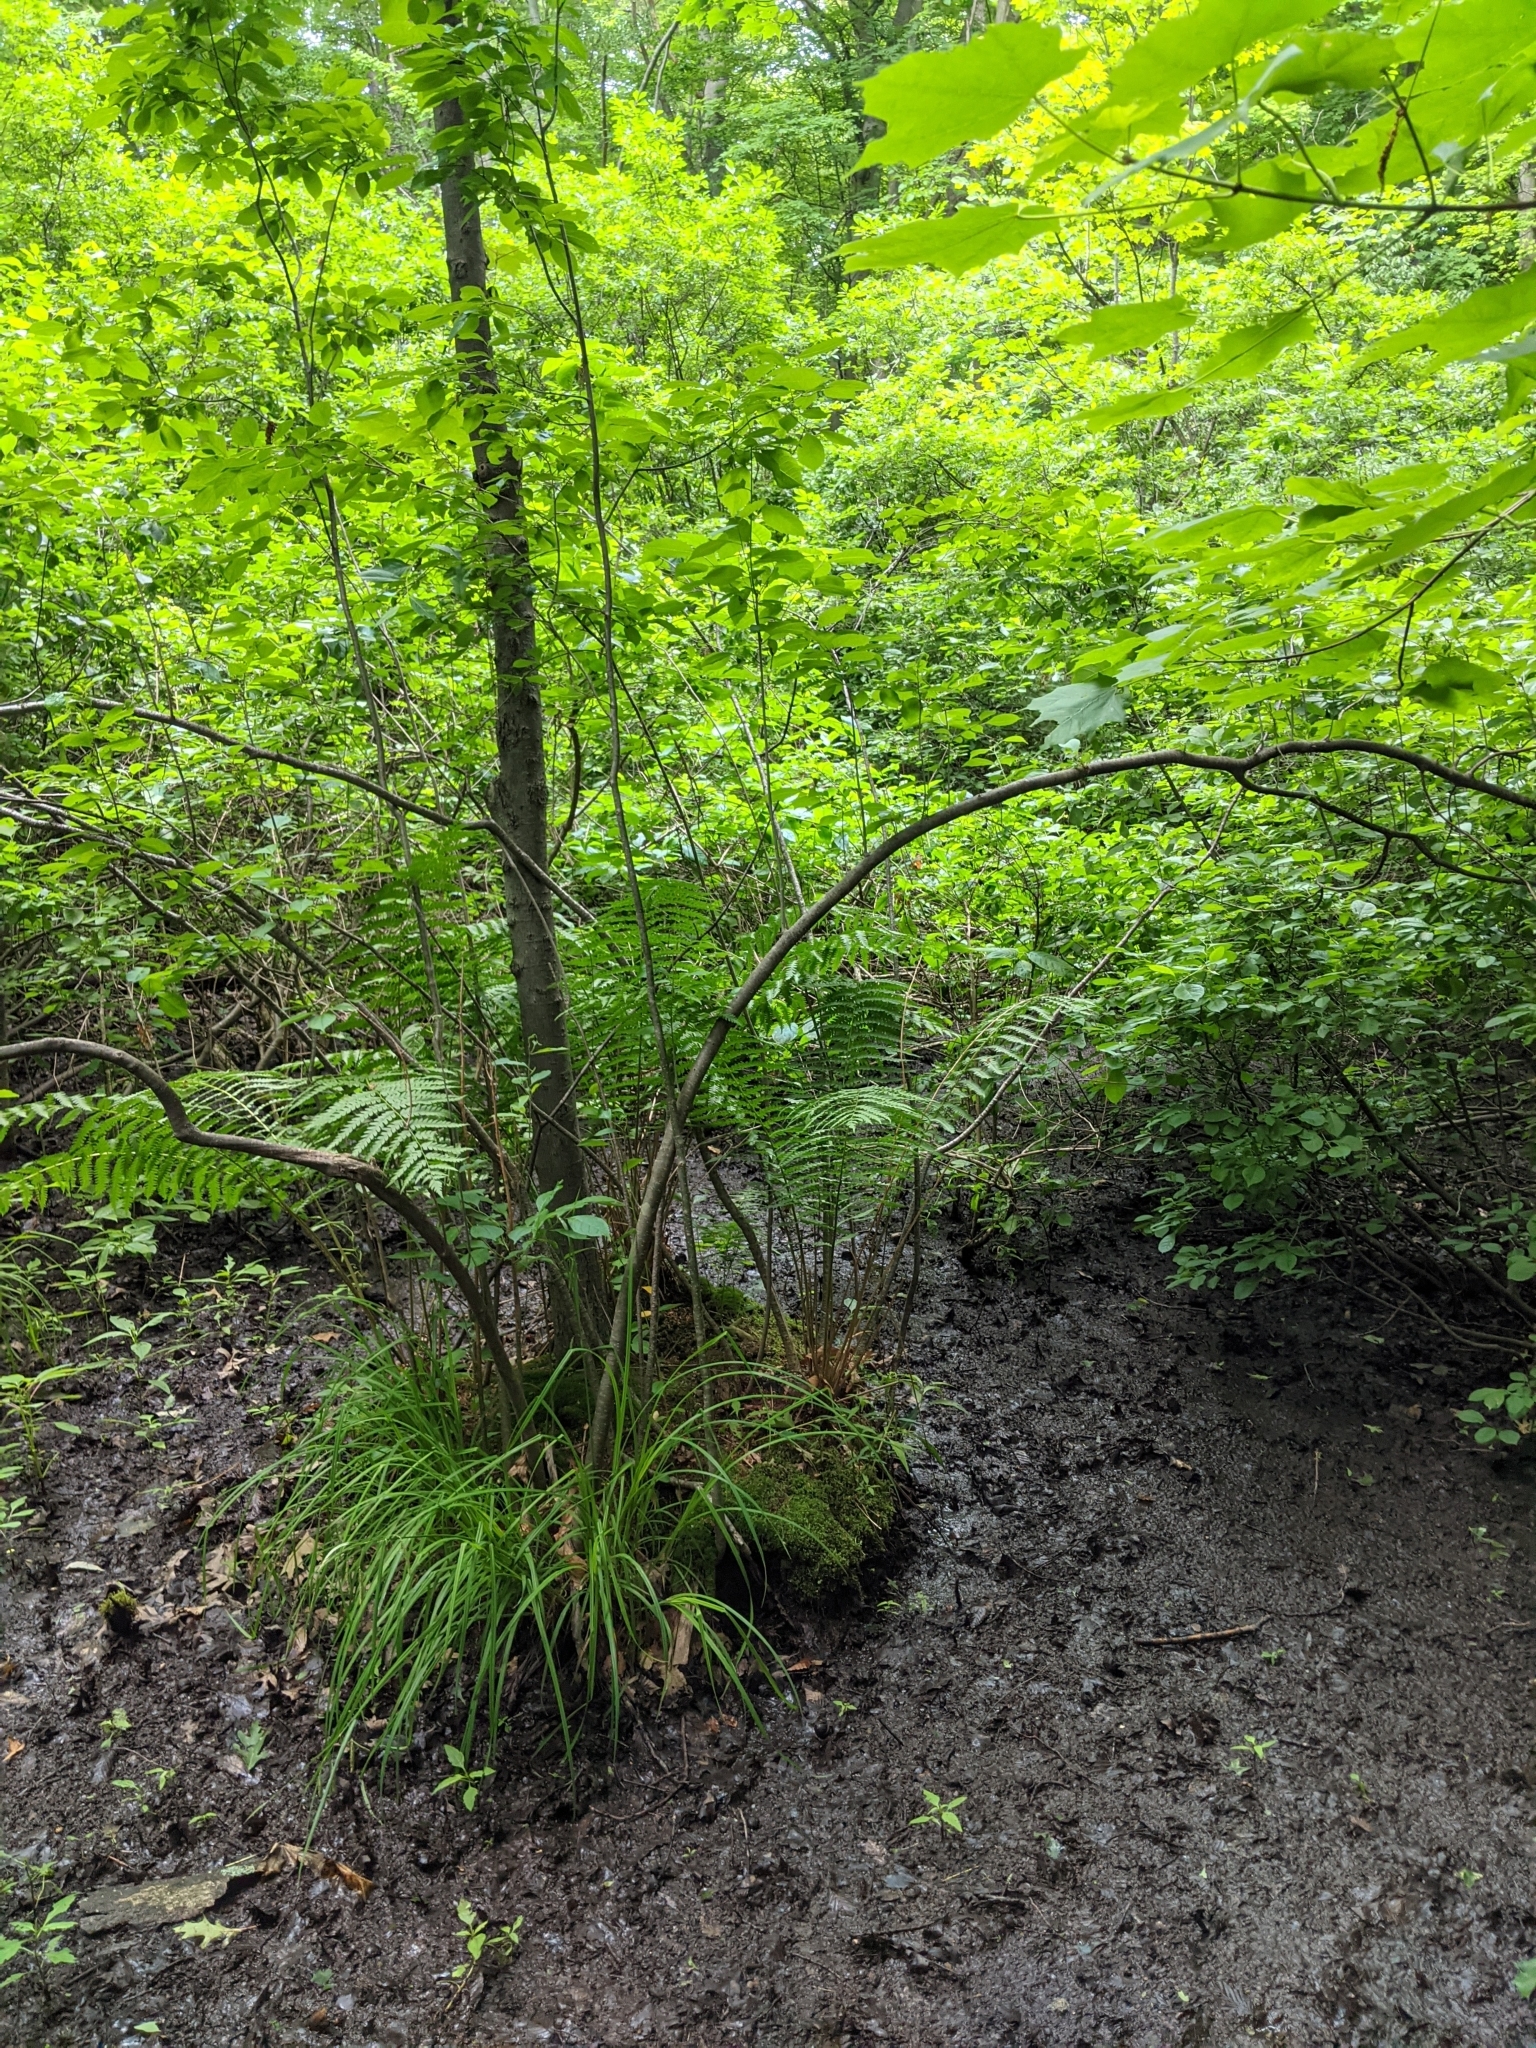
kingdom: Plantae
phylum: Tracheophyta
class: Polypodiopsida
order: Osmundales
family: Osmundaceae
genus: Osmundastrum
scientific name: Osmundastrum cinnamomeum
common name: Cinnamon fern
